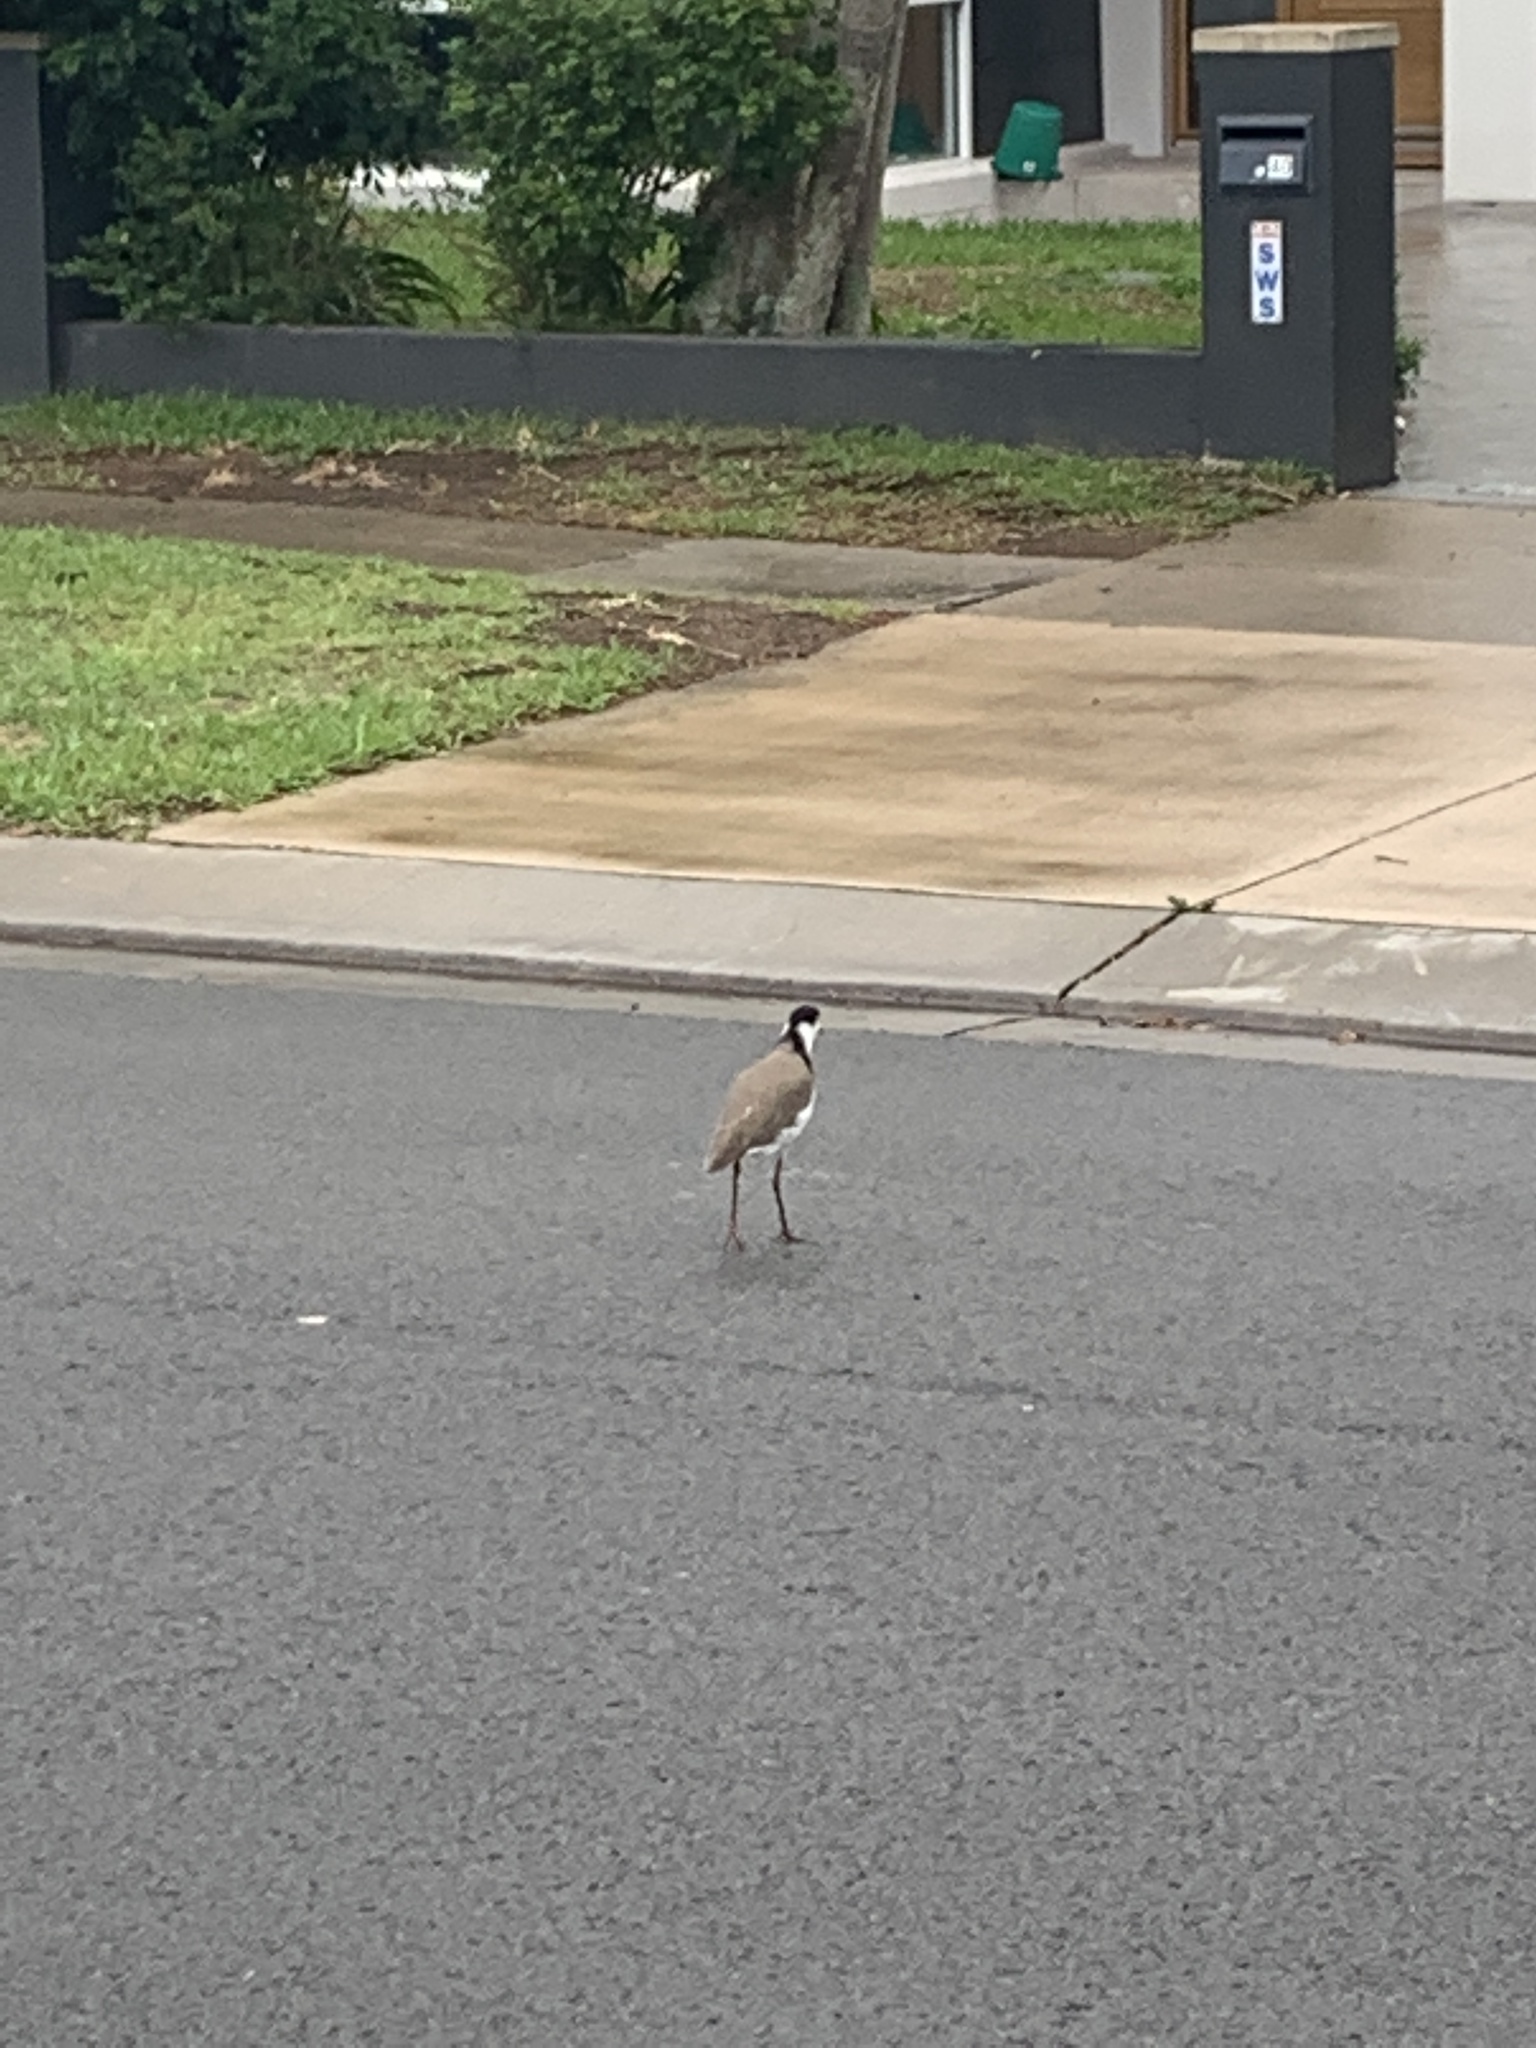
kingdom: Animalia
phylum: Chordata
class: Aves
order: Charadriiformes
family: Charadriidae
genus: Vanellus
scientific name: Vanellus miles
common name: Masked lapwing
